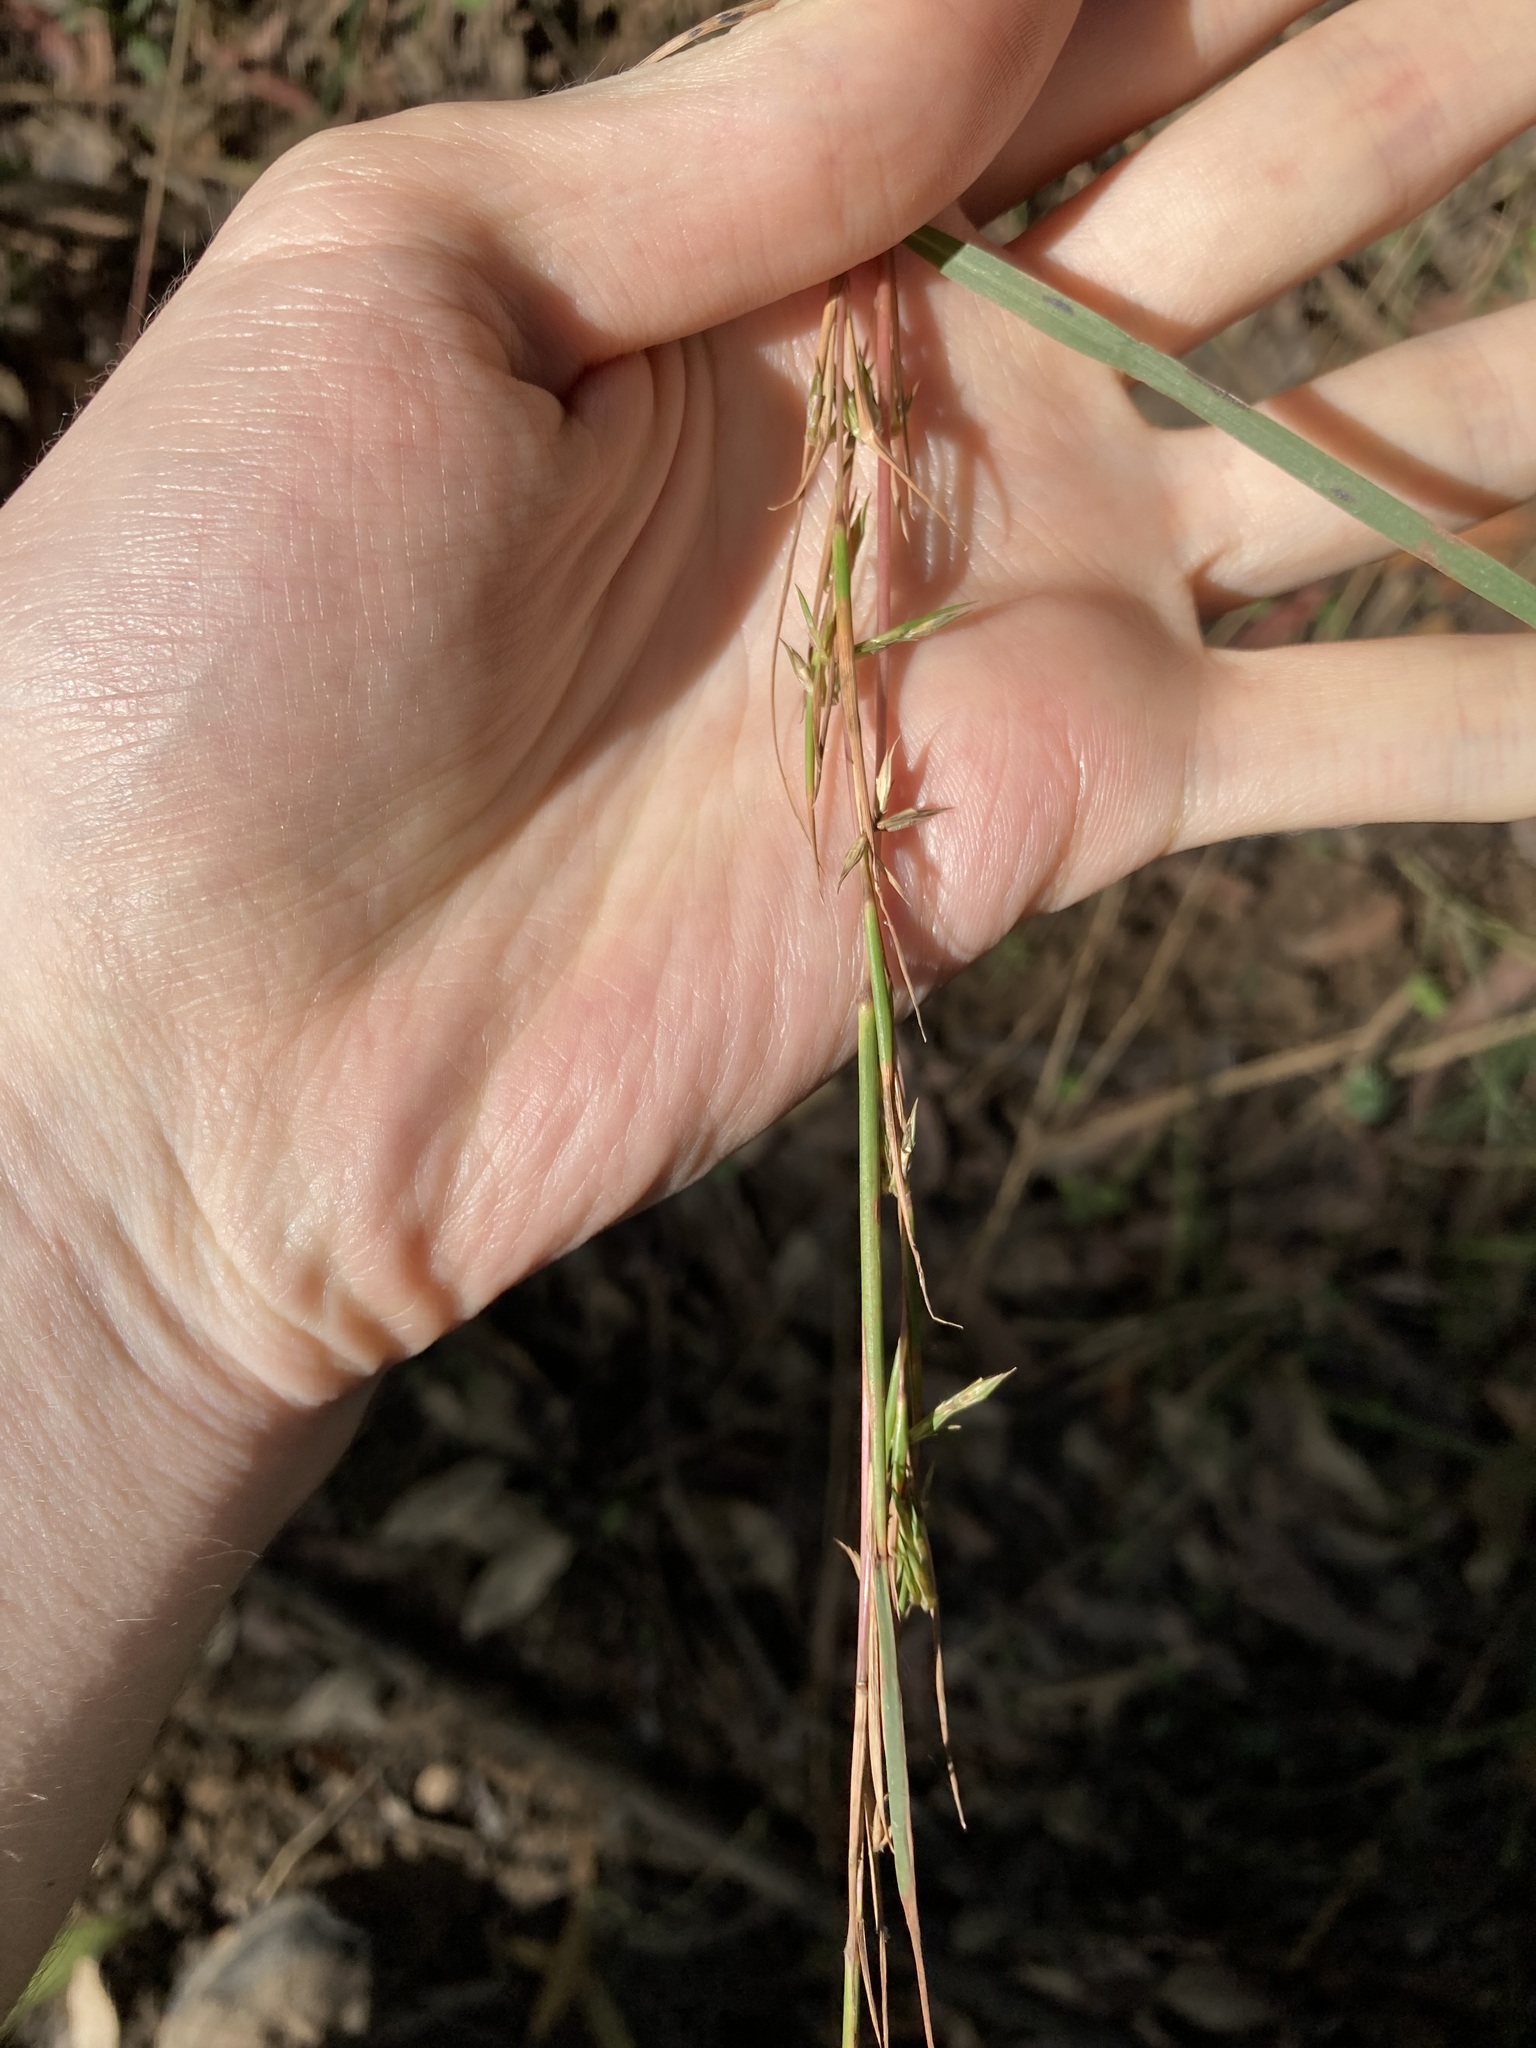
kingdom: Plantae
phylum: Tracheophyta
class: Liliopsida
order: Poales
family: Poaceae
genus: Cymbopogon
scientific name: Cymbopogon refractus
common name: Barbwire grass
